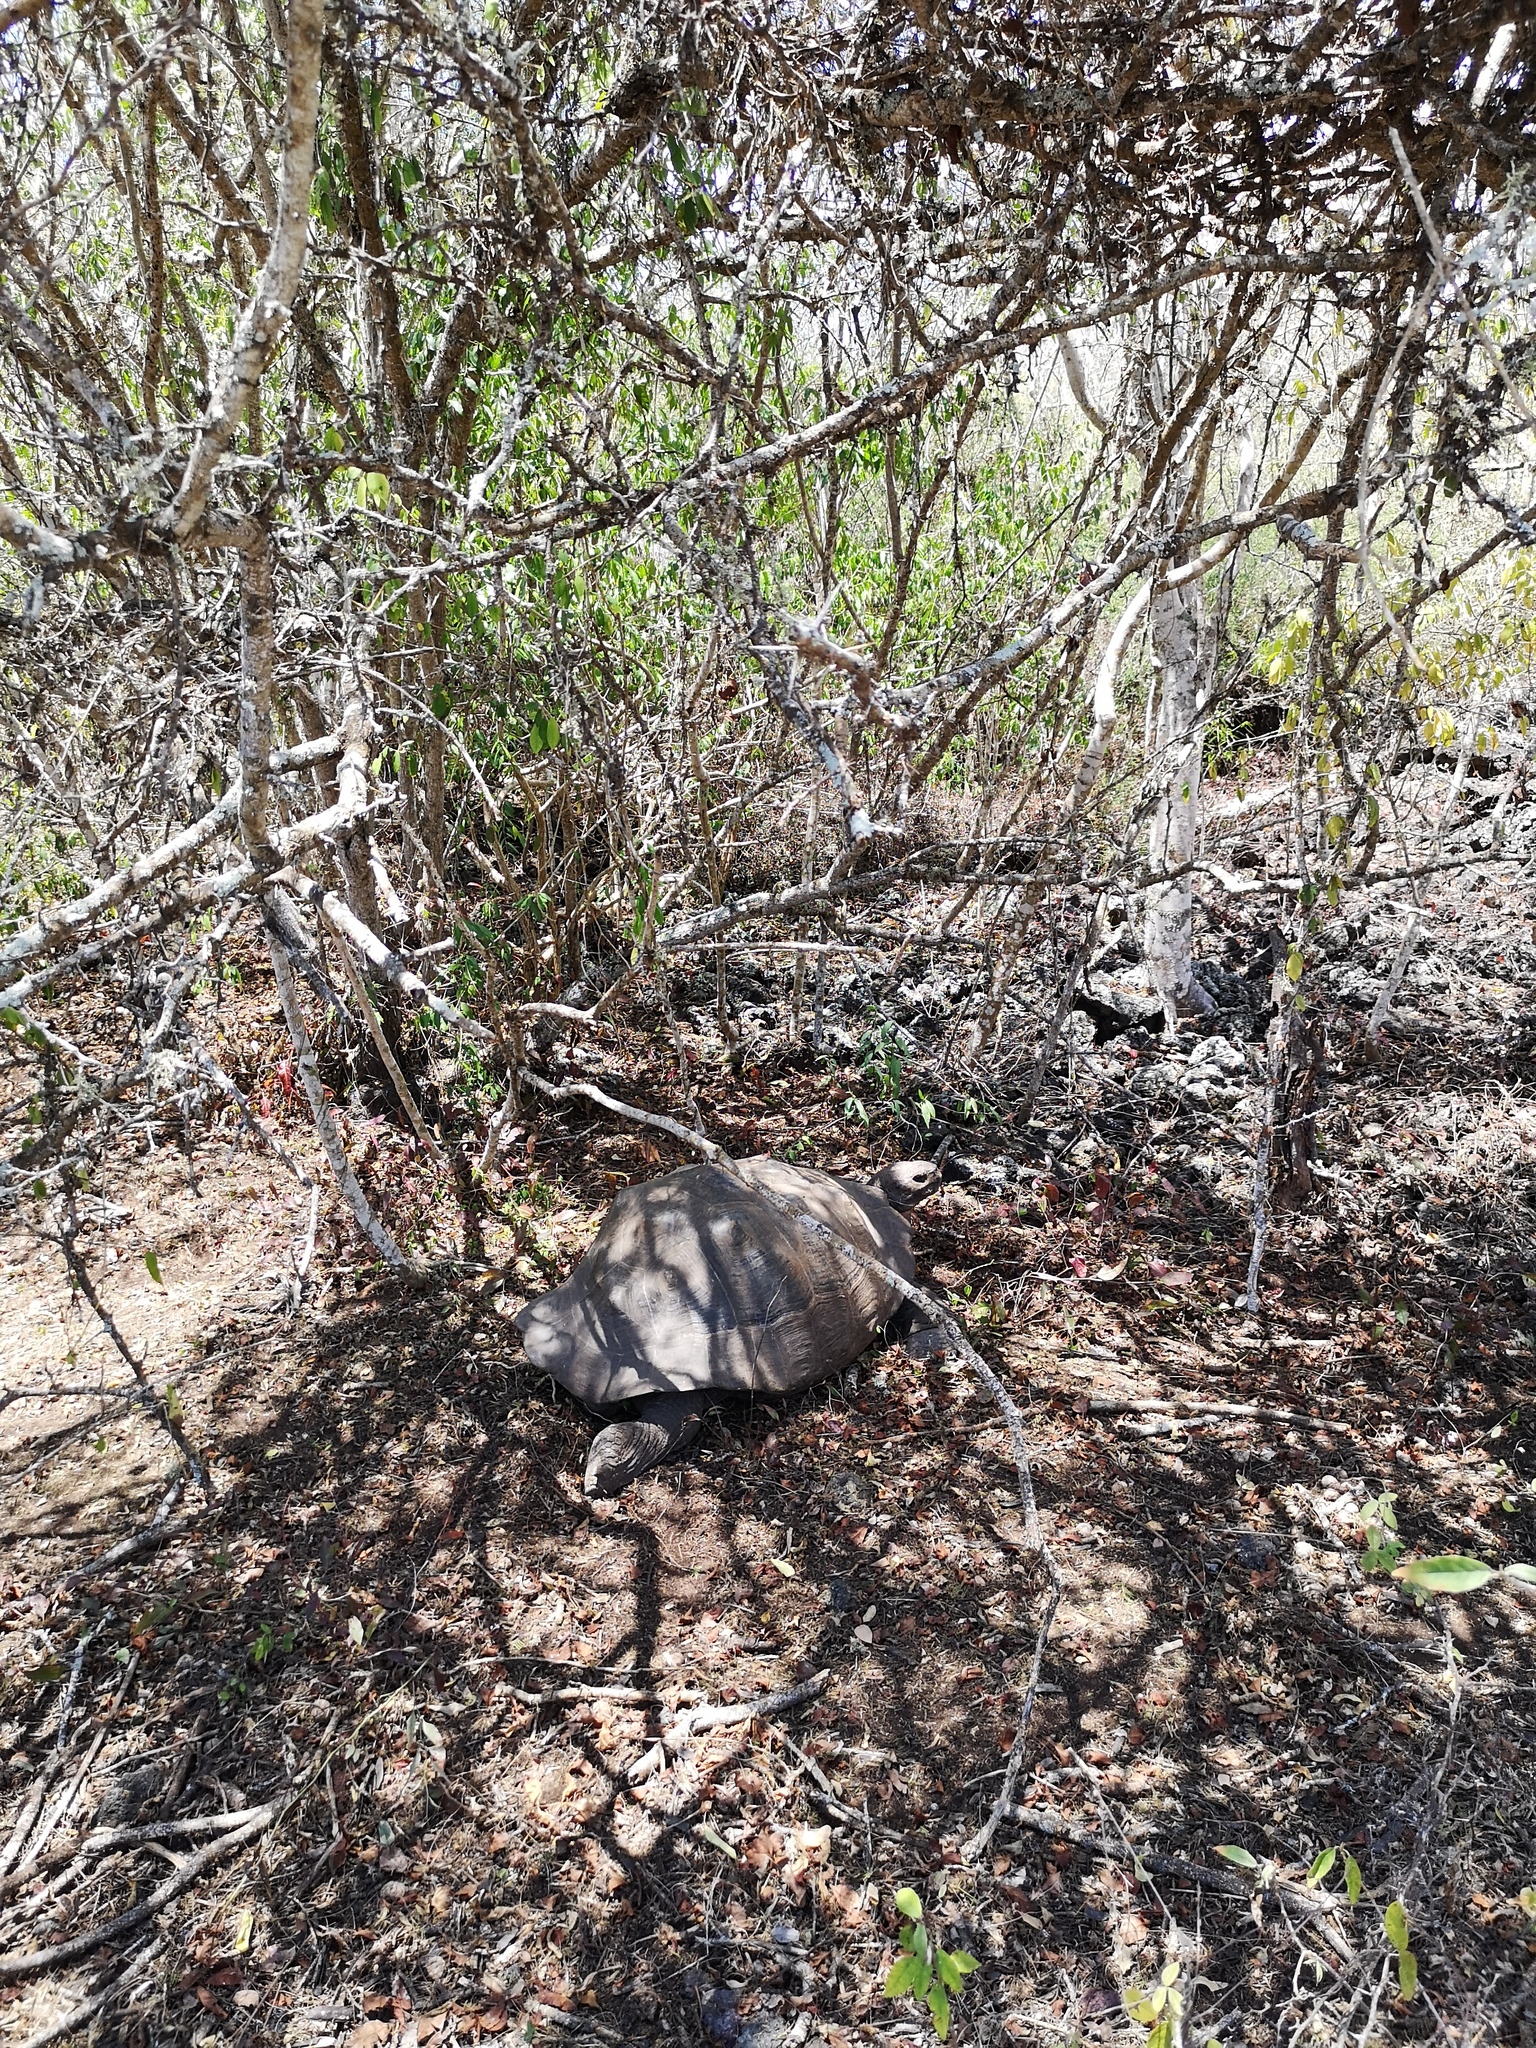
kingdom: Animalia
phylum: Chordata
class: Testudines
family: Testudinidae
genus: Chelonoidis
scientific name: Chelonoidis guntheri
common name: Sierra negra giant tortoise
